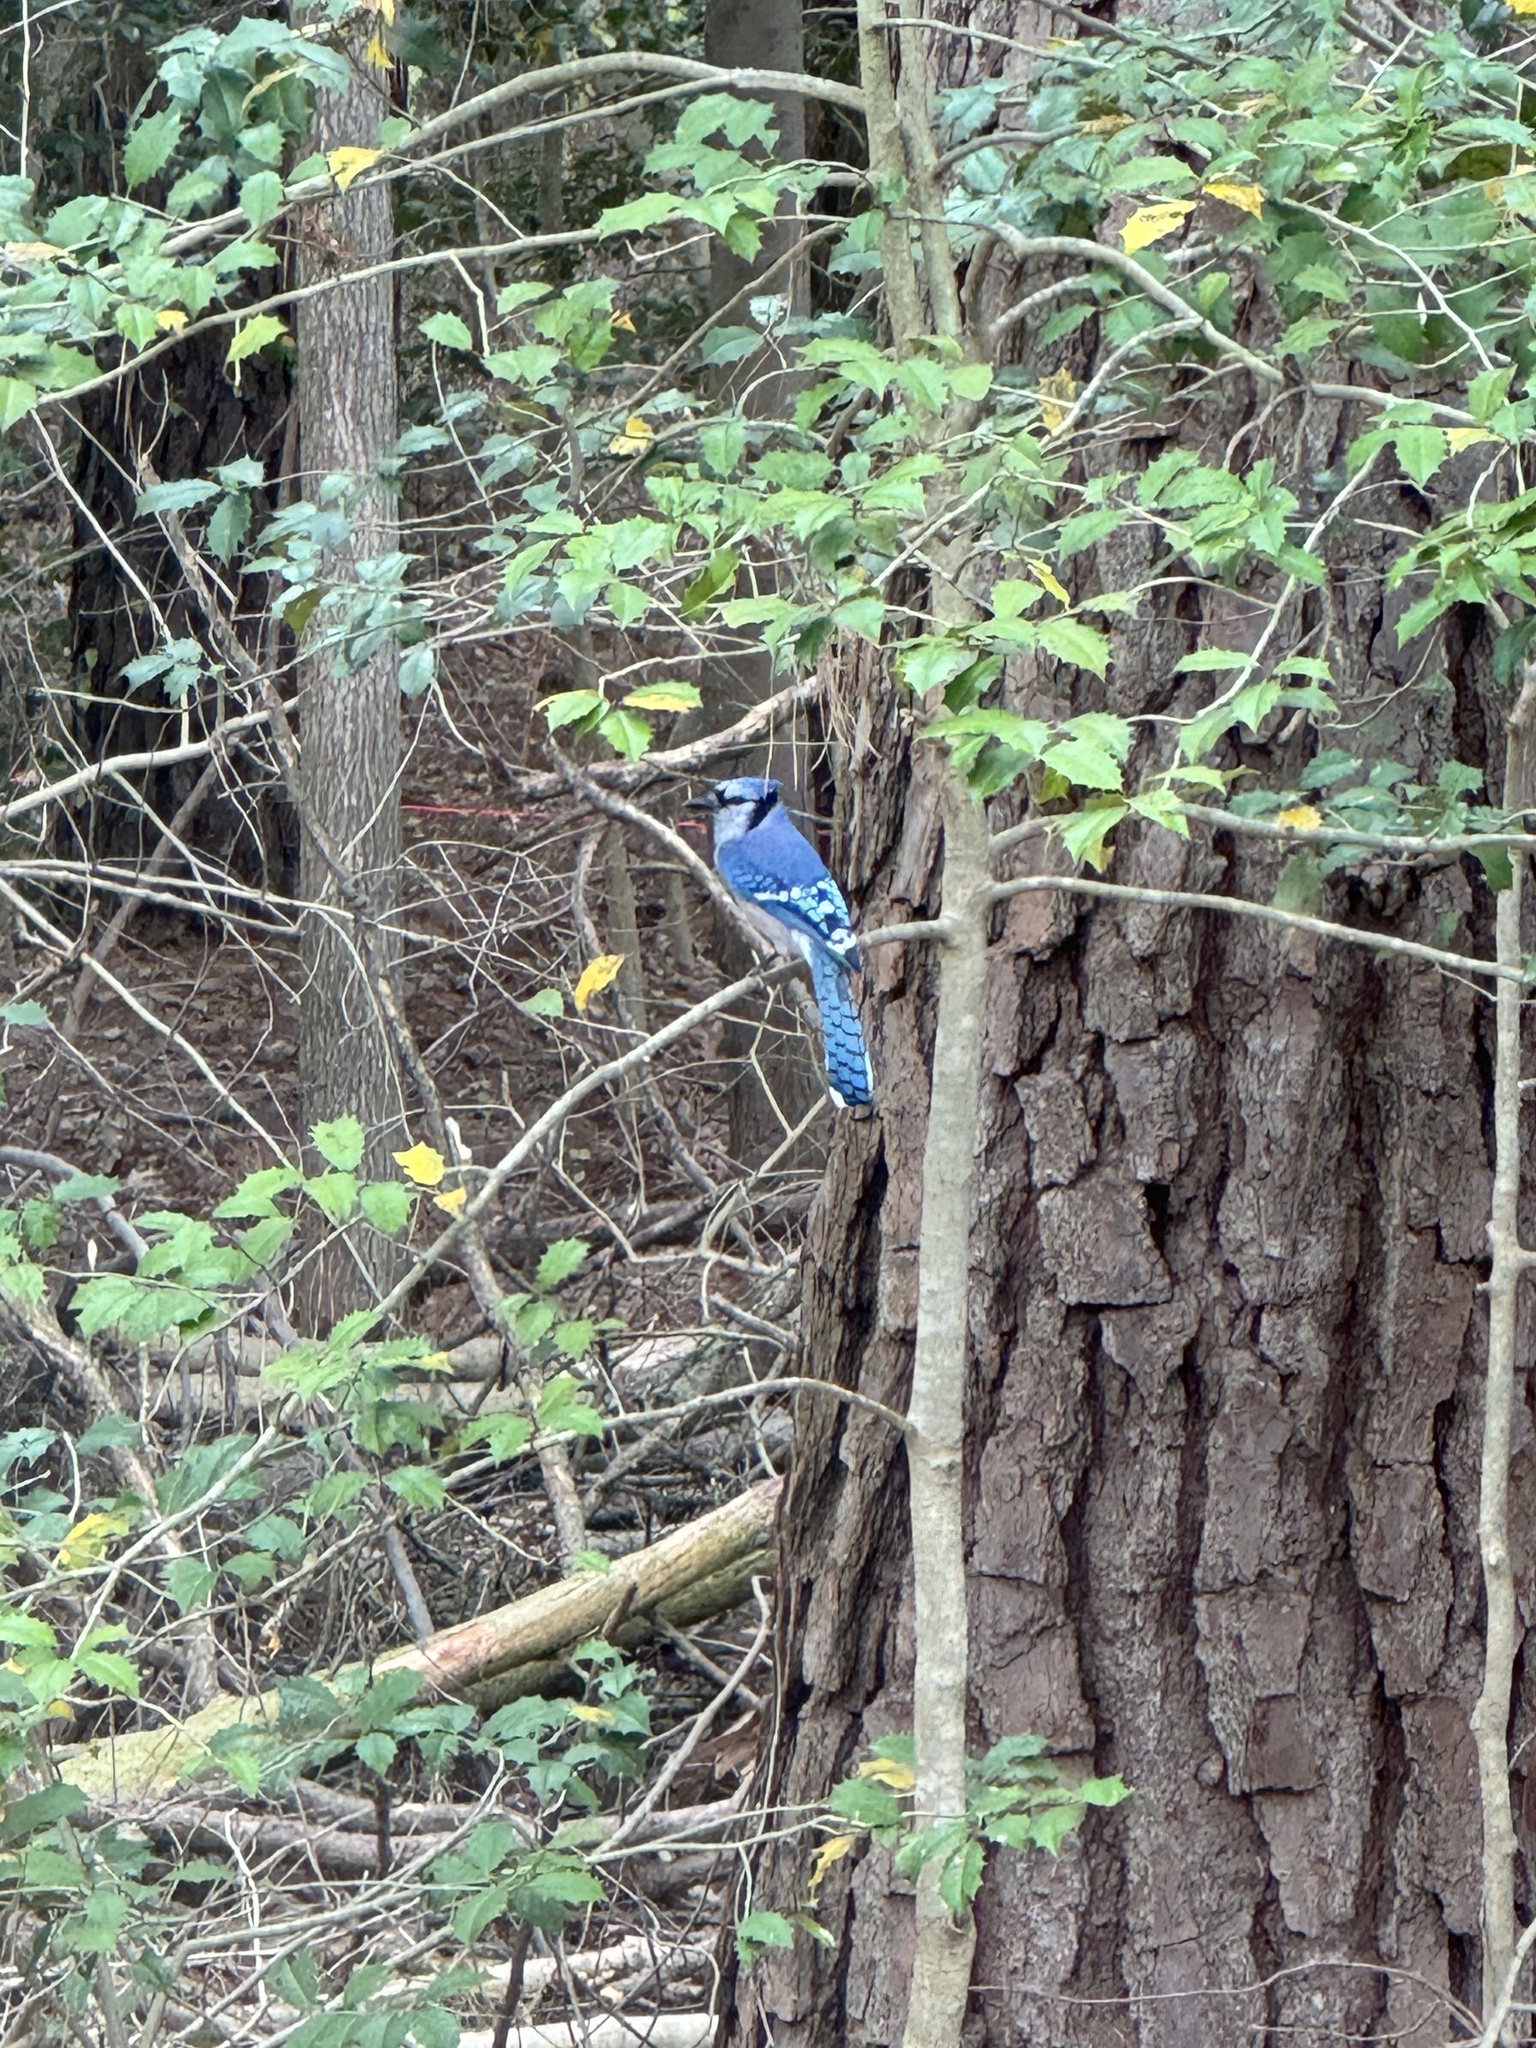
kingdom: Animalia
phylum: Chordata
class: Aves
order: Passeriformes
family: Corvidae
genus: Cyanocitta
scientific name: Cyanocitta cristata
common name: Blue jay
